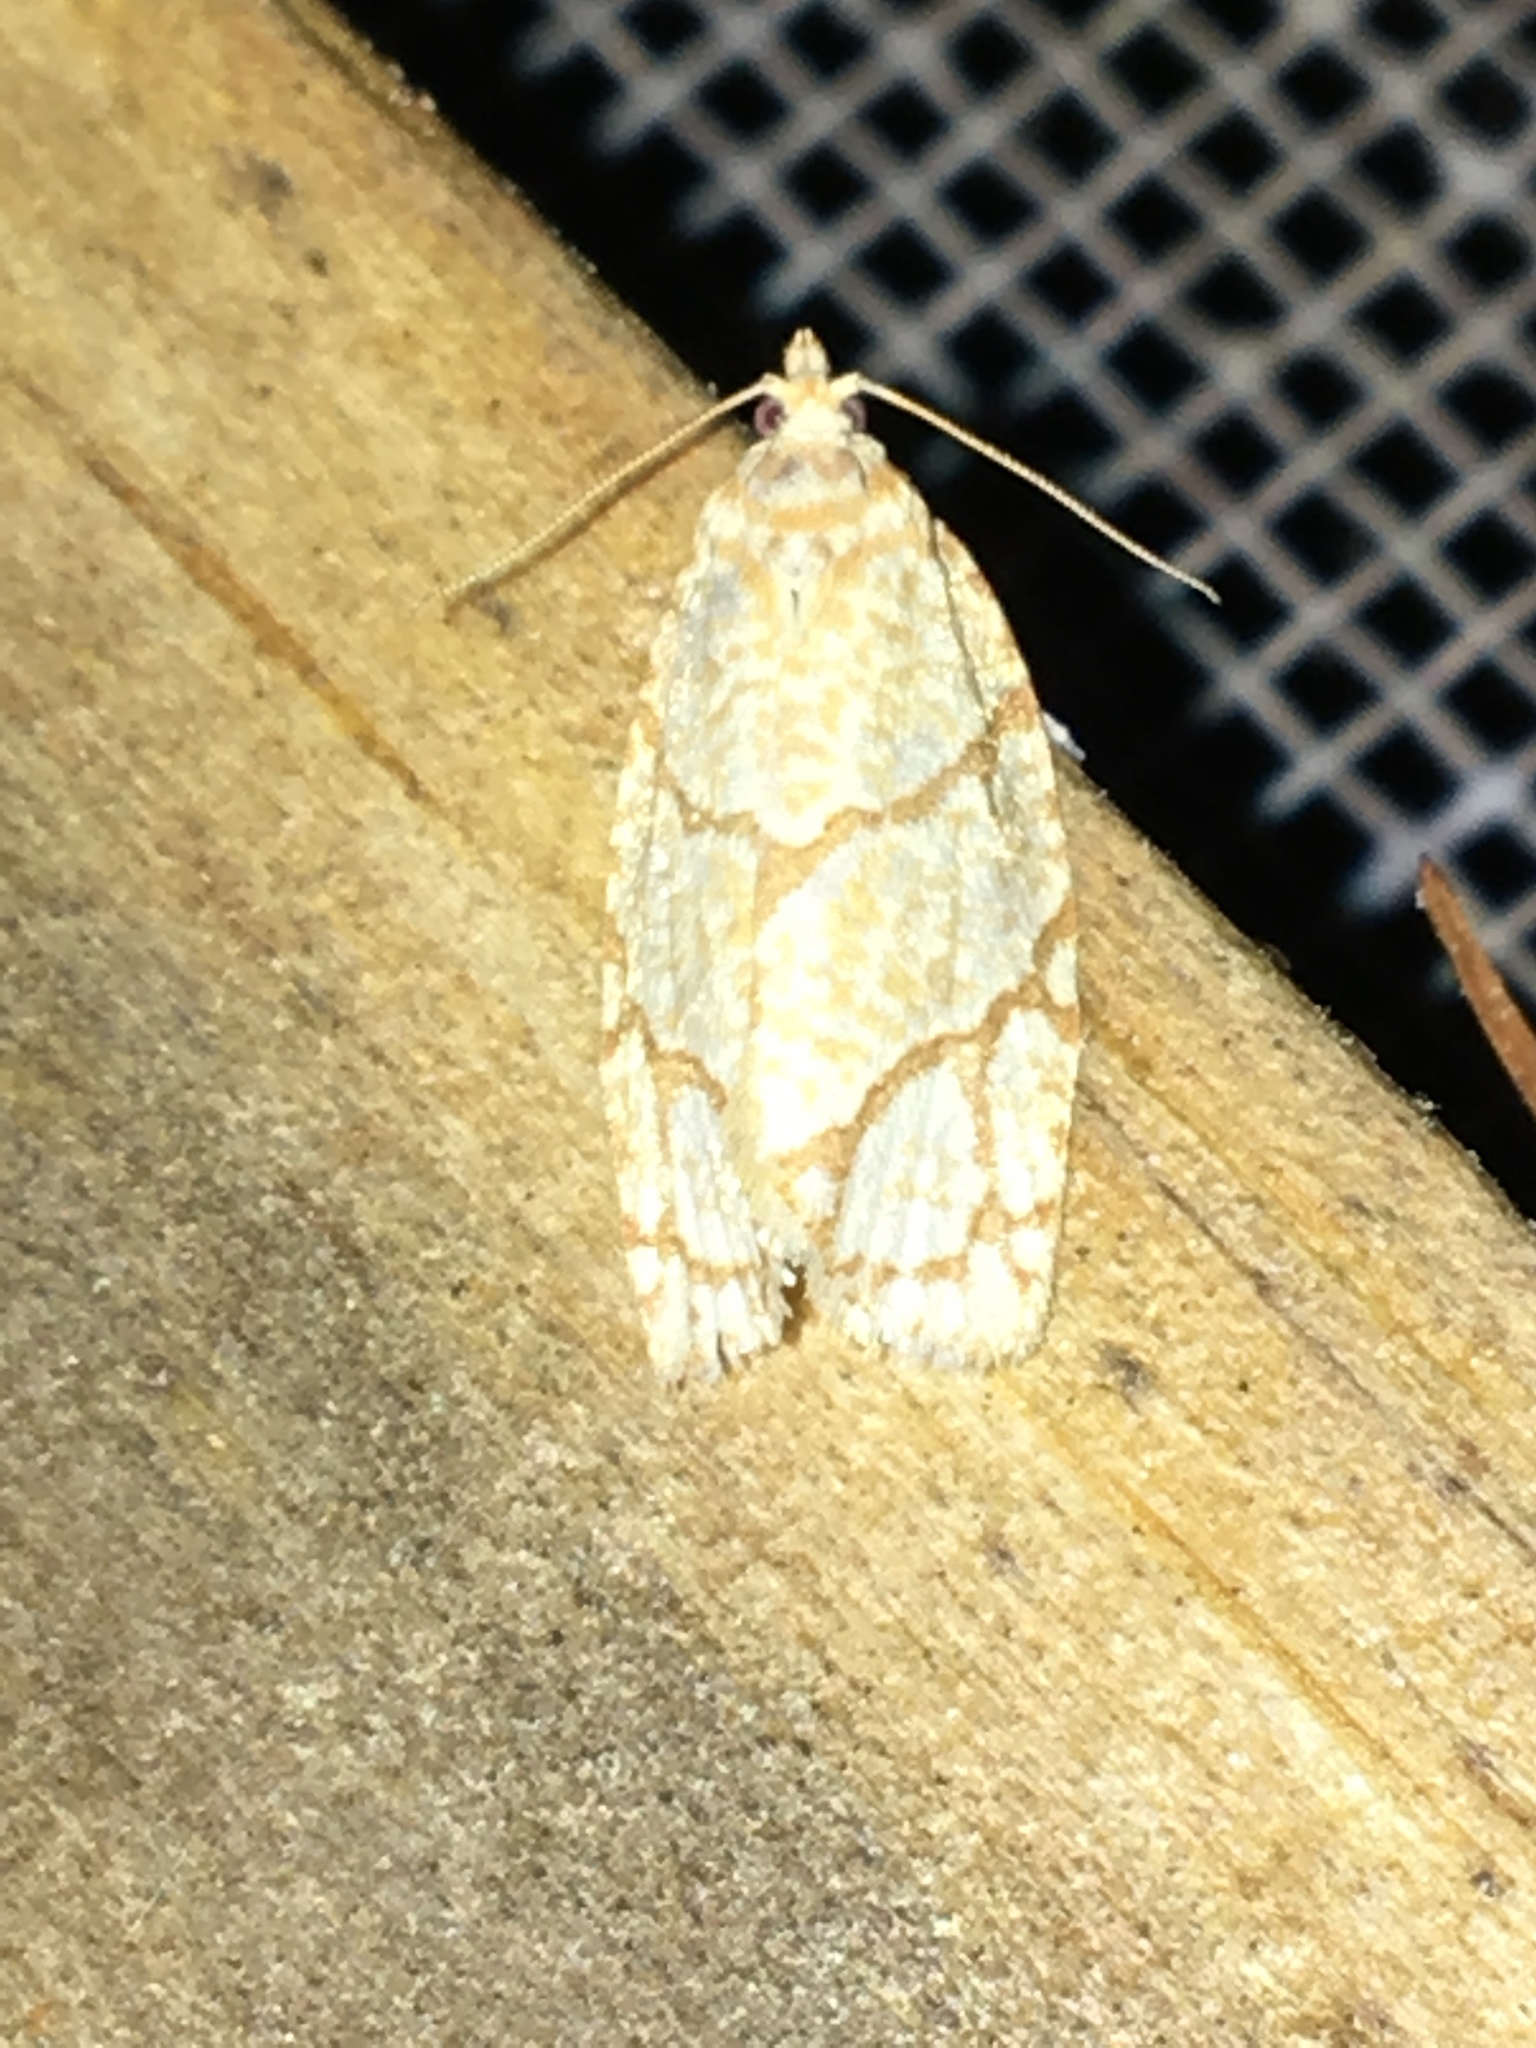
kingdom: Animalia
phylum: Arthropoda
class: Insecta
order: Lepidoptera
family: Tortricidae
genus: Argyrotaenia
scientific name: Argyrotaenia quercifoliana
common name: Yellow-winged oak leafroller moth
